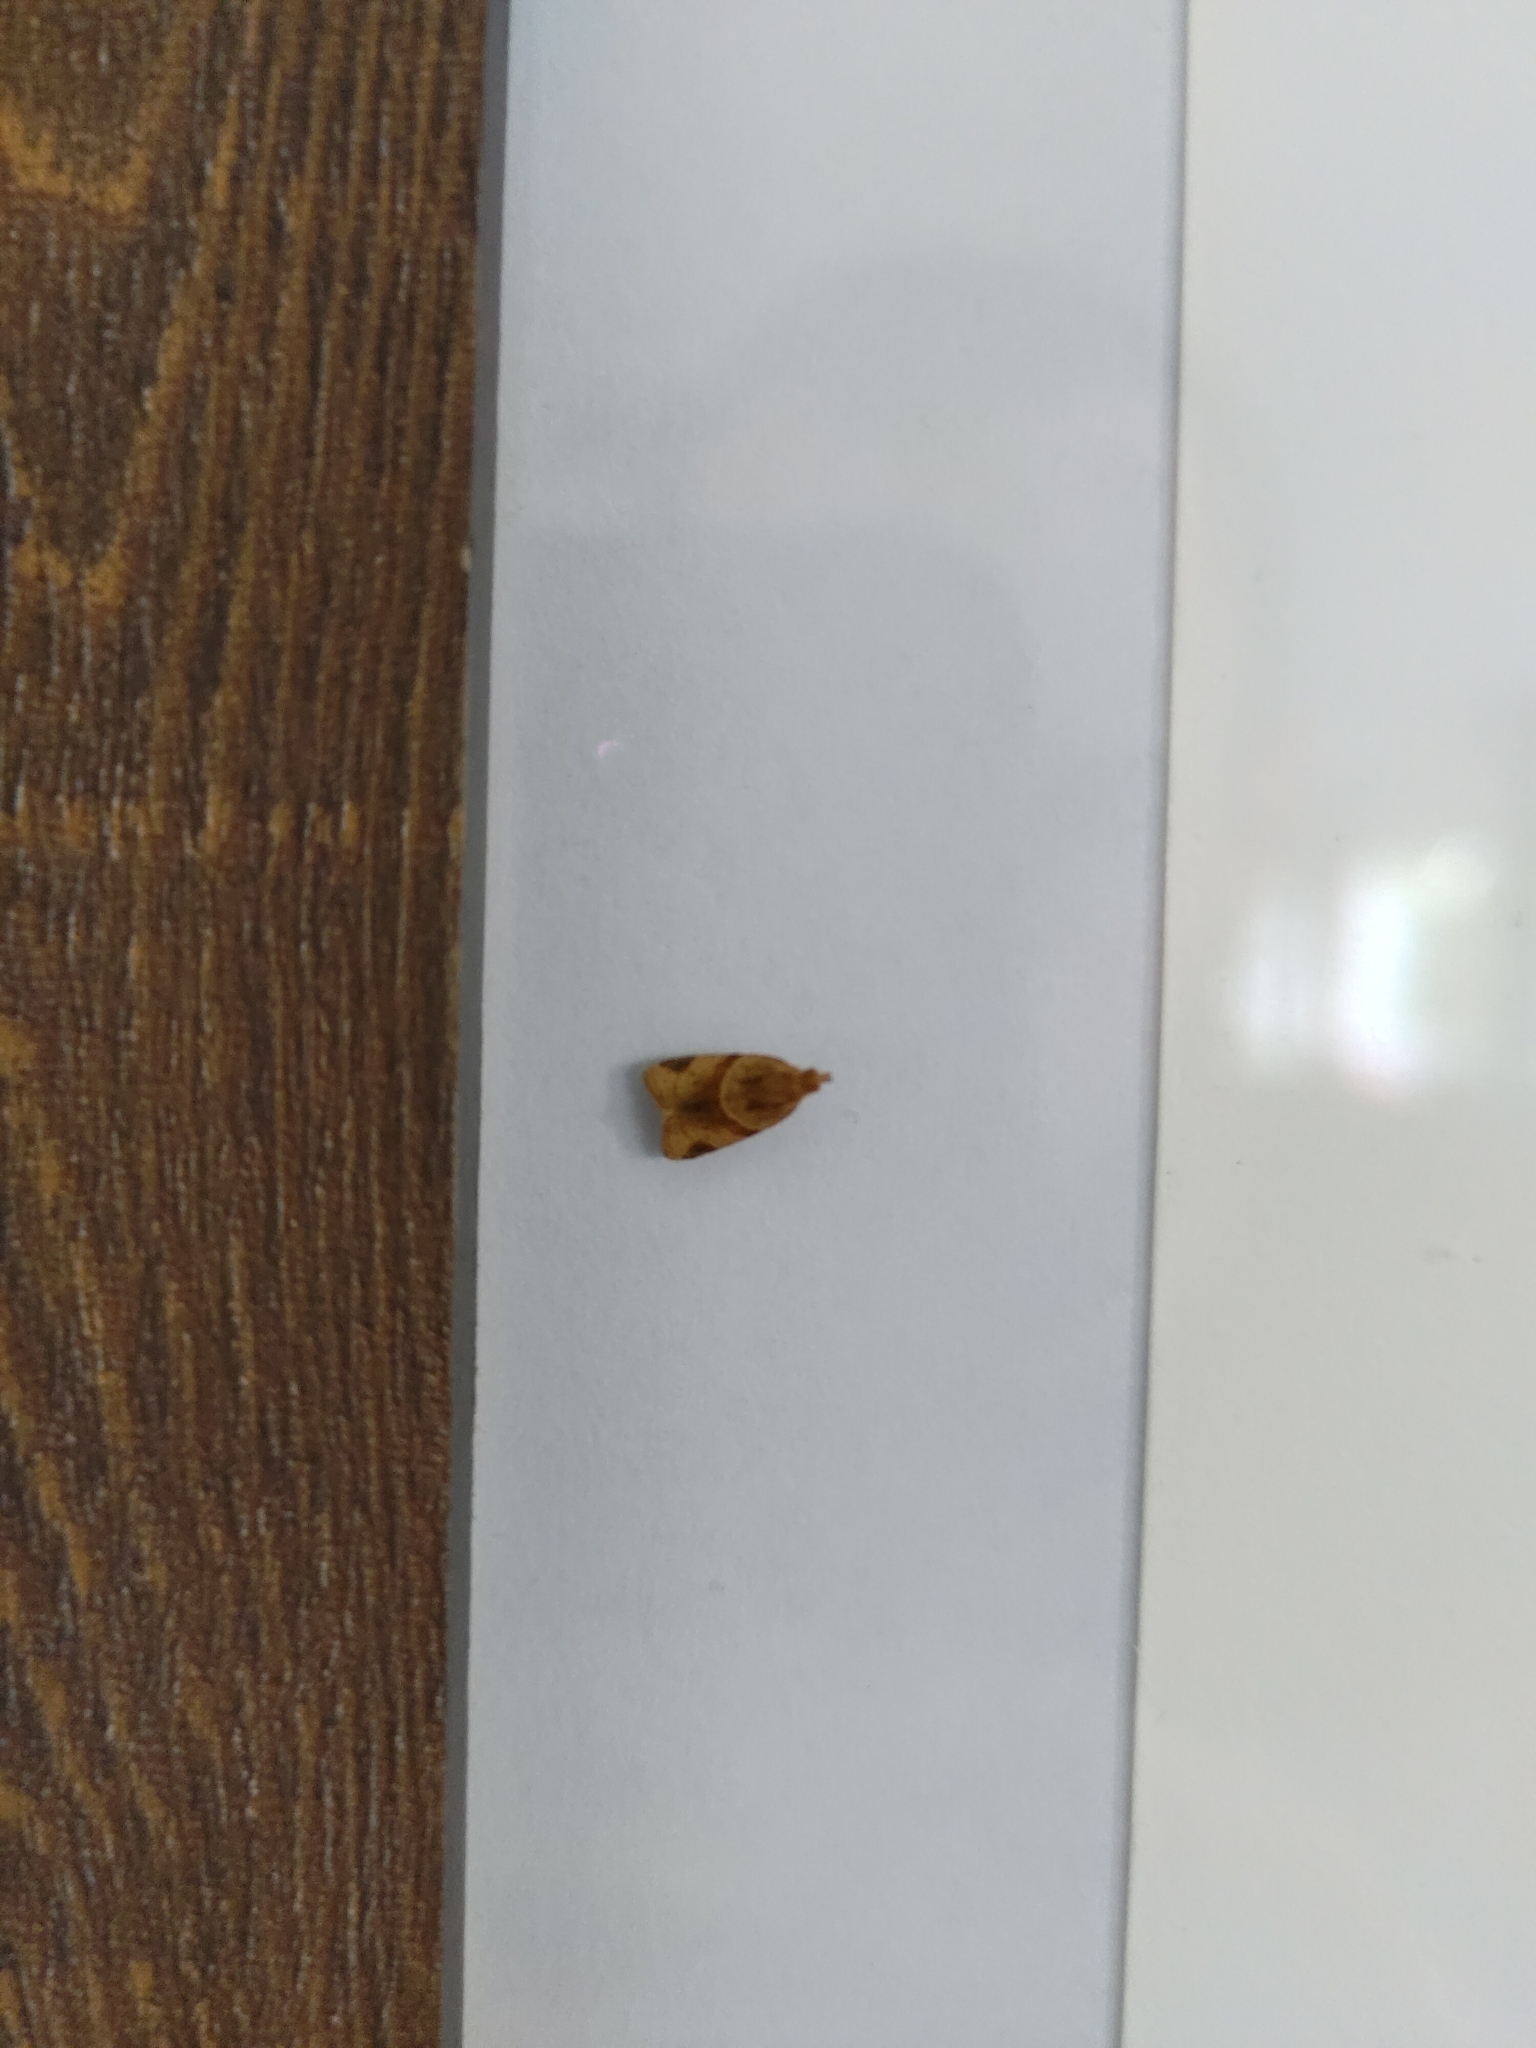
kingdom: Animalia
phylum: Arthropoda
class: Insecta
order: Lepidoptera
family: Tortricidae
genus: Clepsis
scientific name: Clepsis peritana
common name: Garden tortrix
